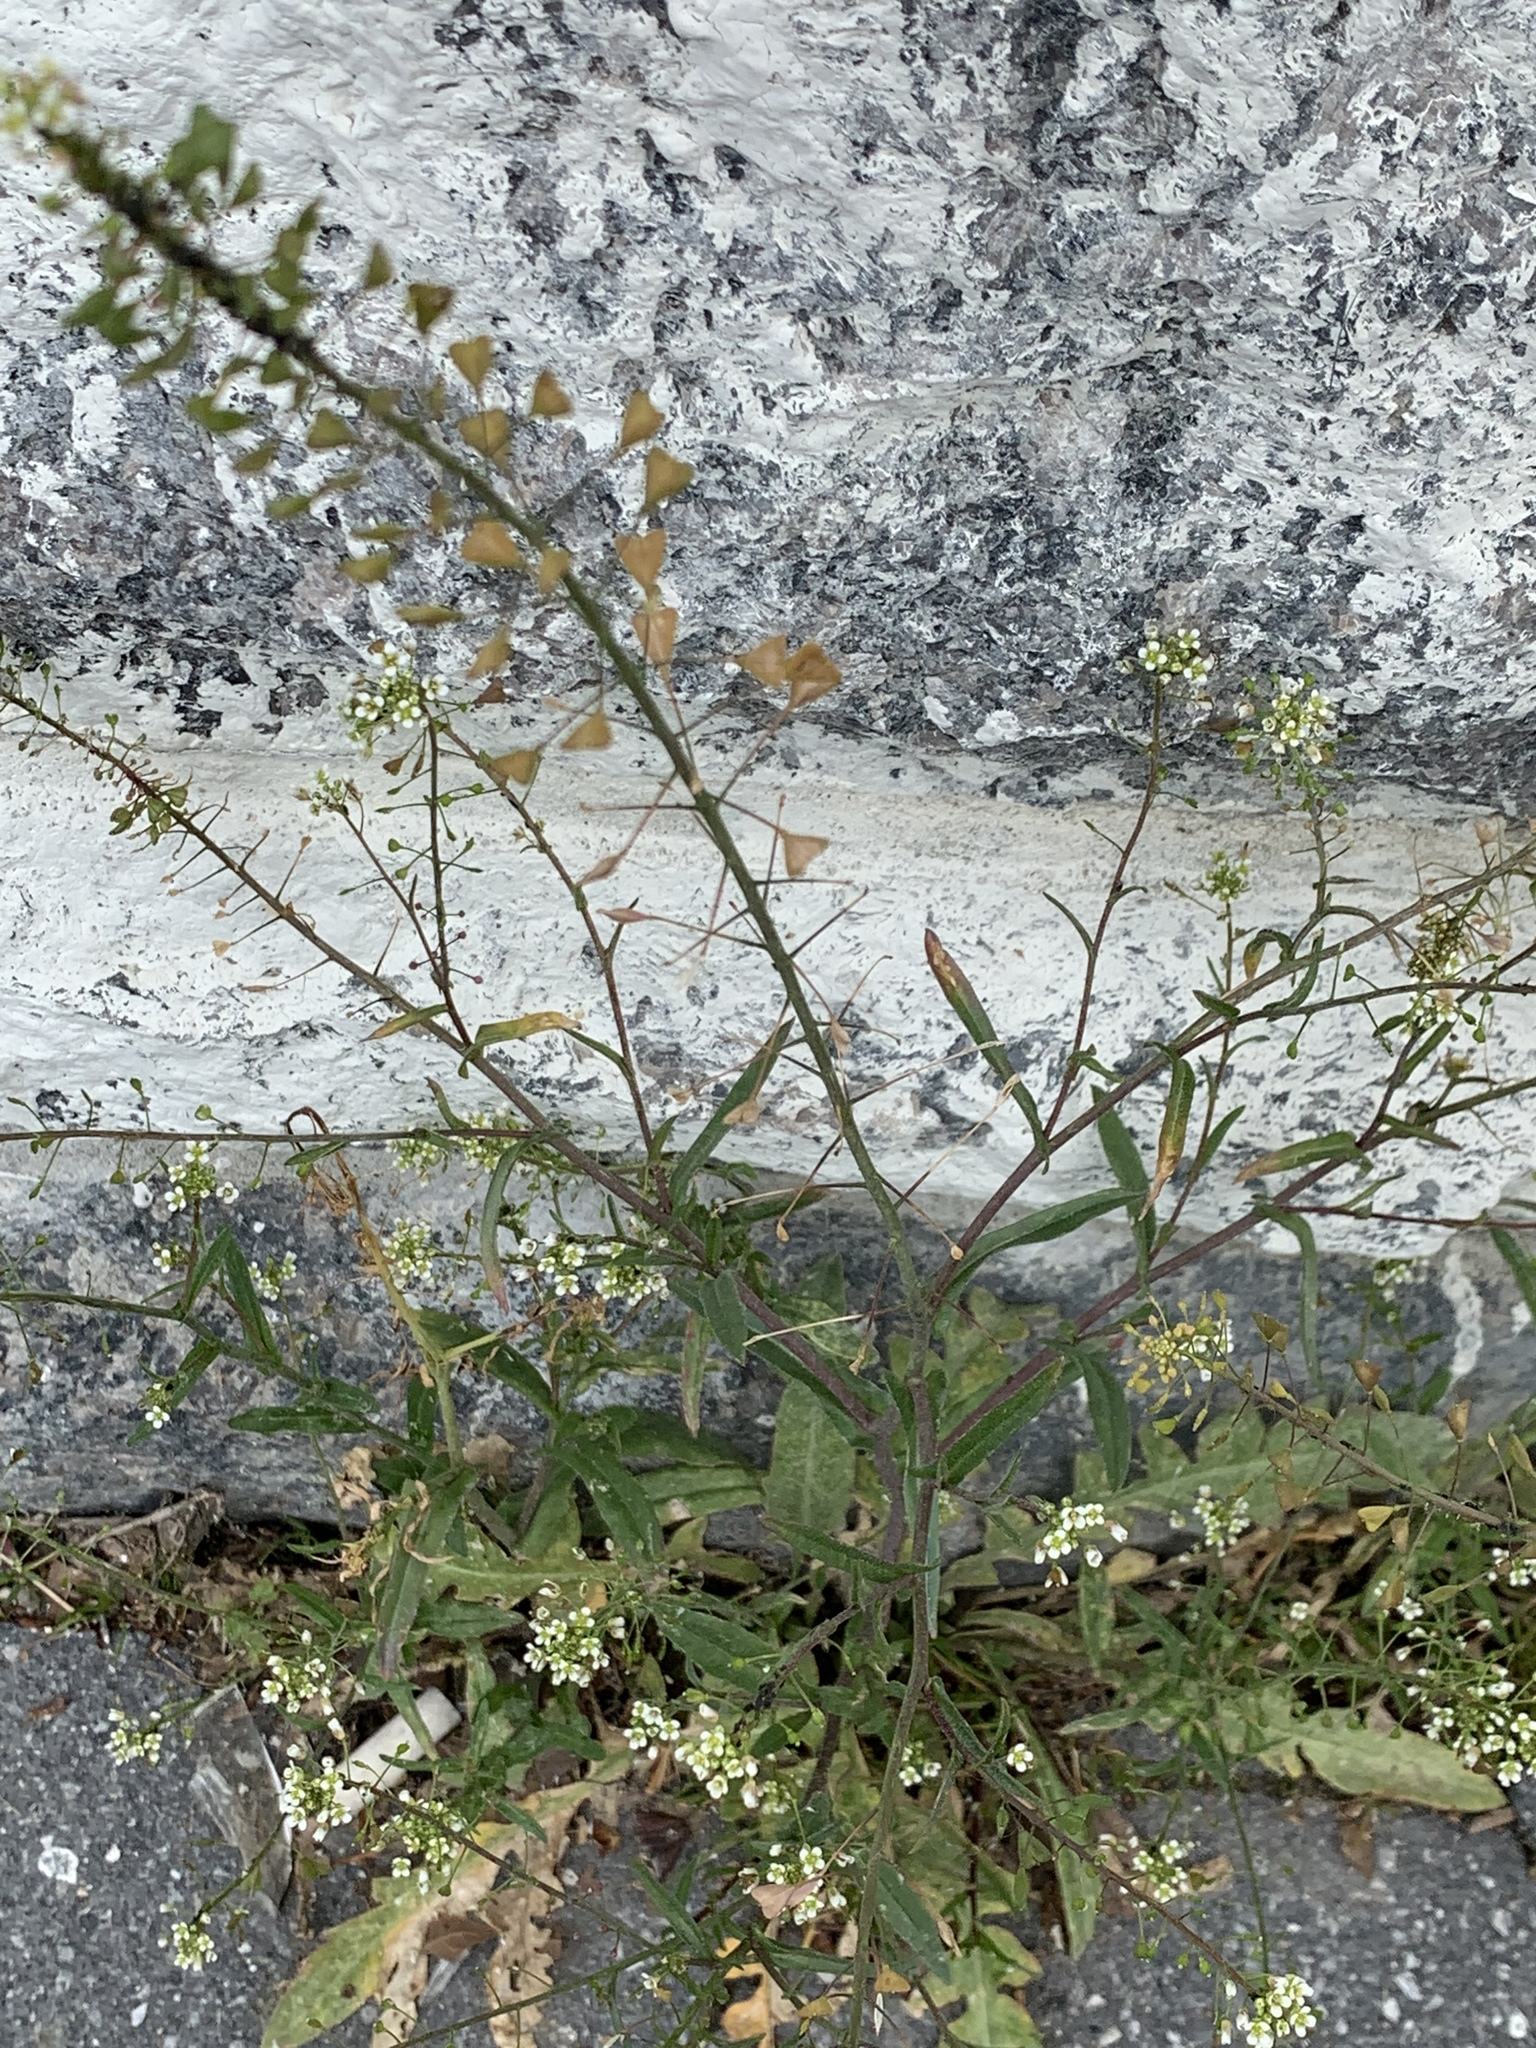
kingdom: Plantae
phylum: Tracheophyta
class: Magnoliopsida
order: Brassicales
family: Brassicaceae
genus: Capsella
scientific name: Capsella bursa-pastoris
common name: Shepherd's purse
